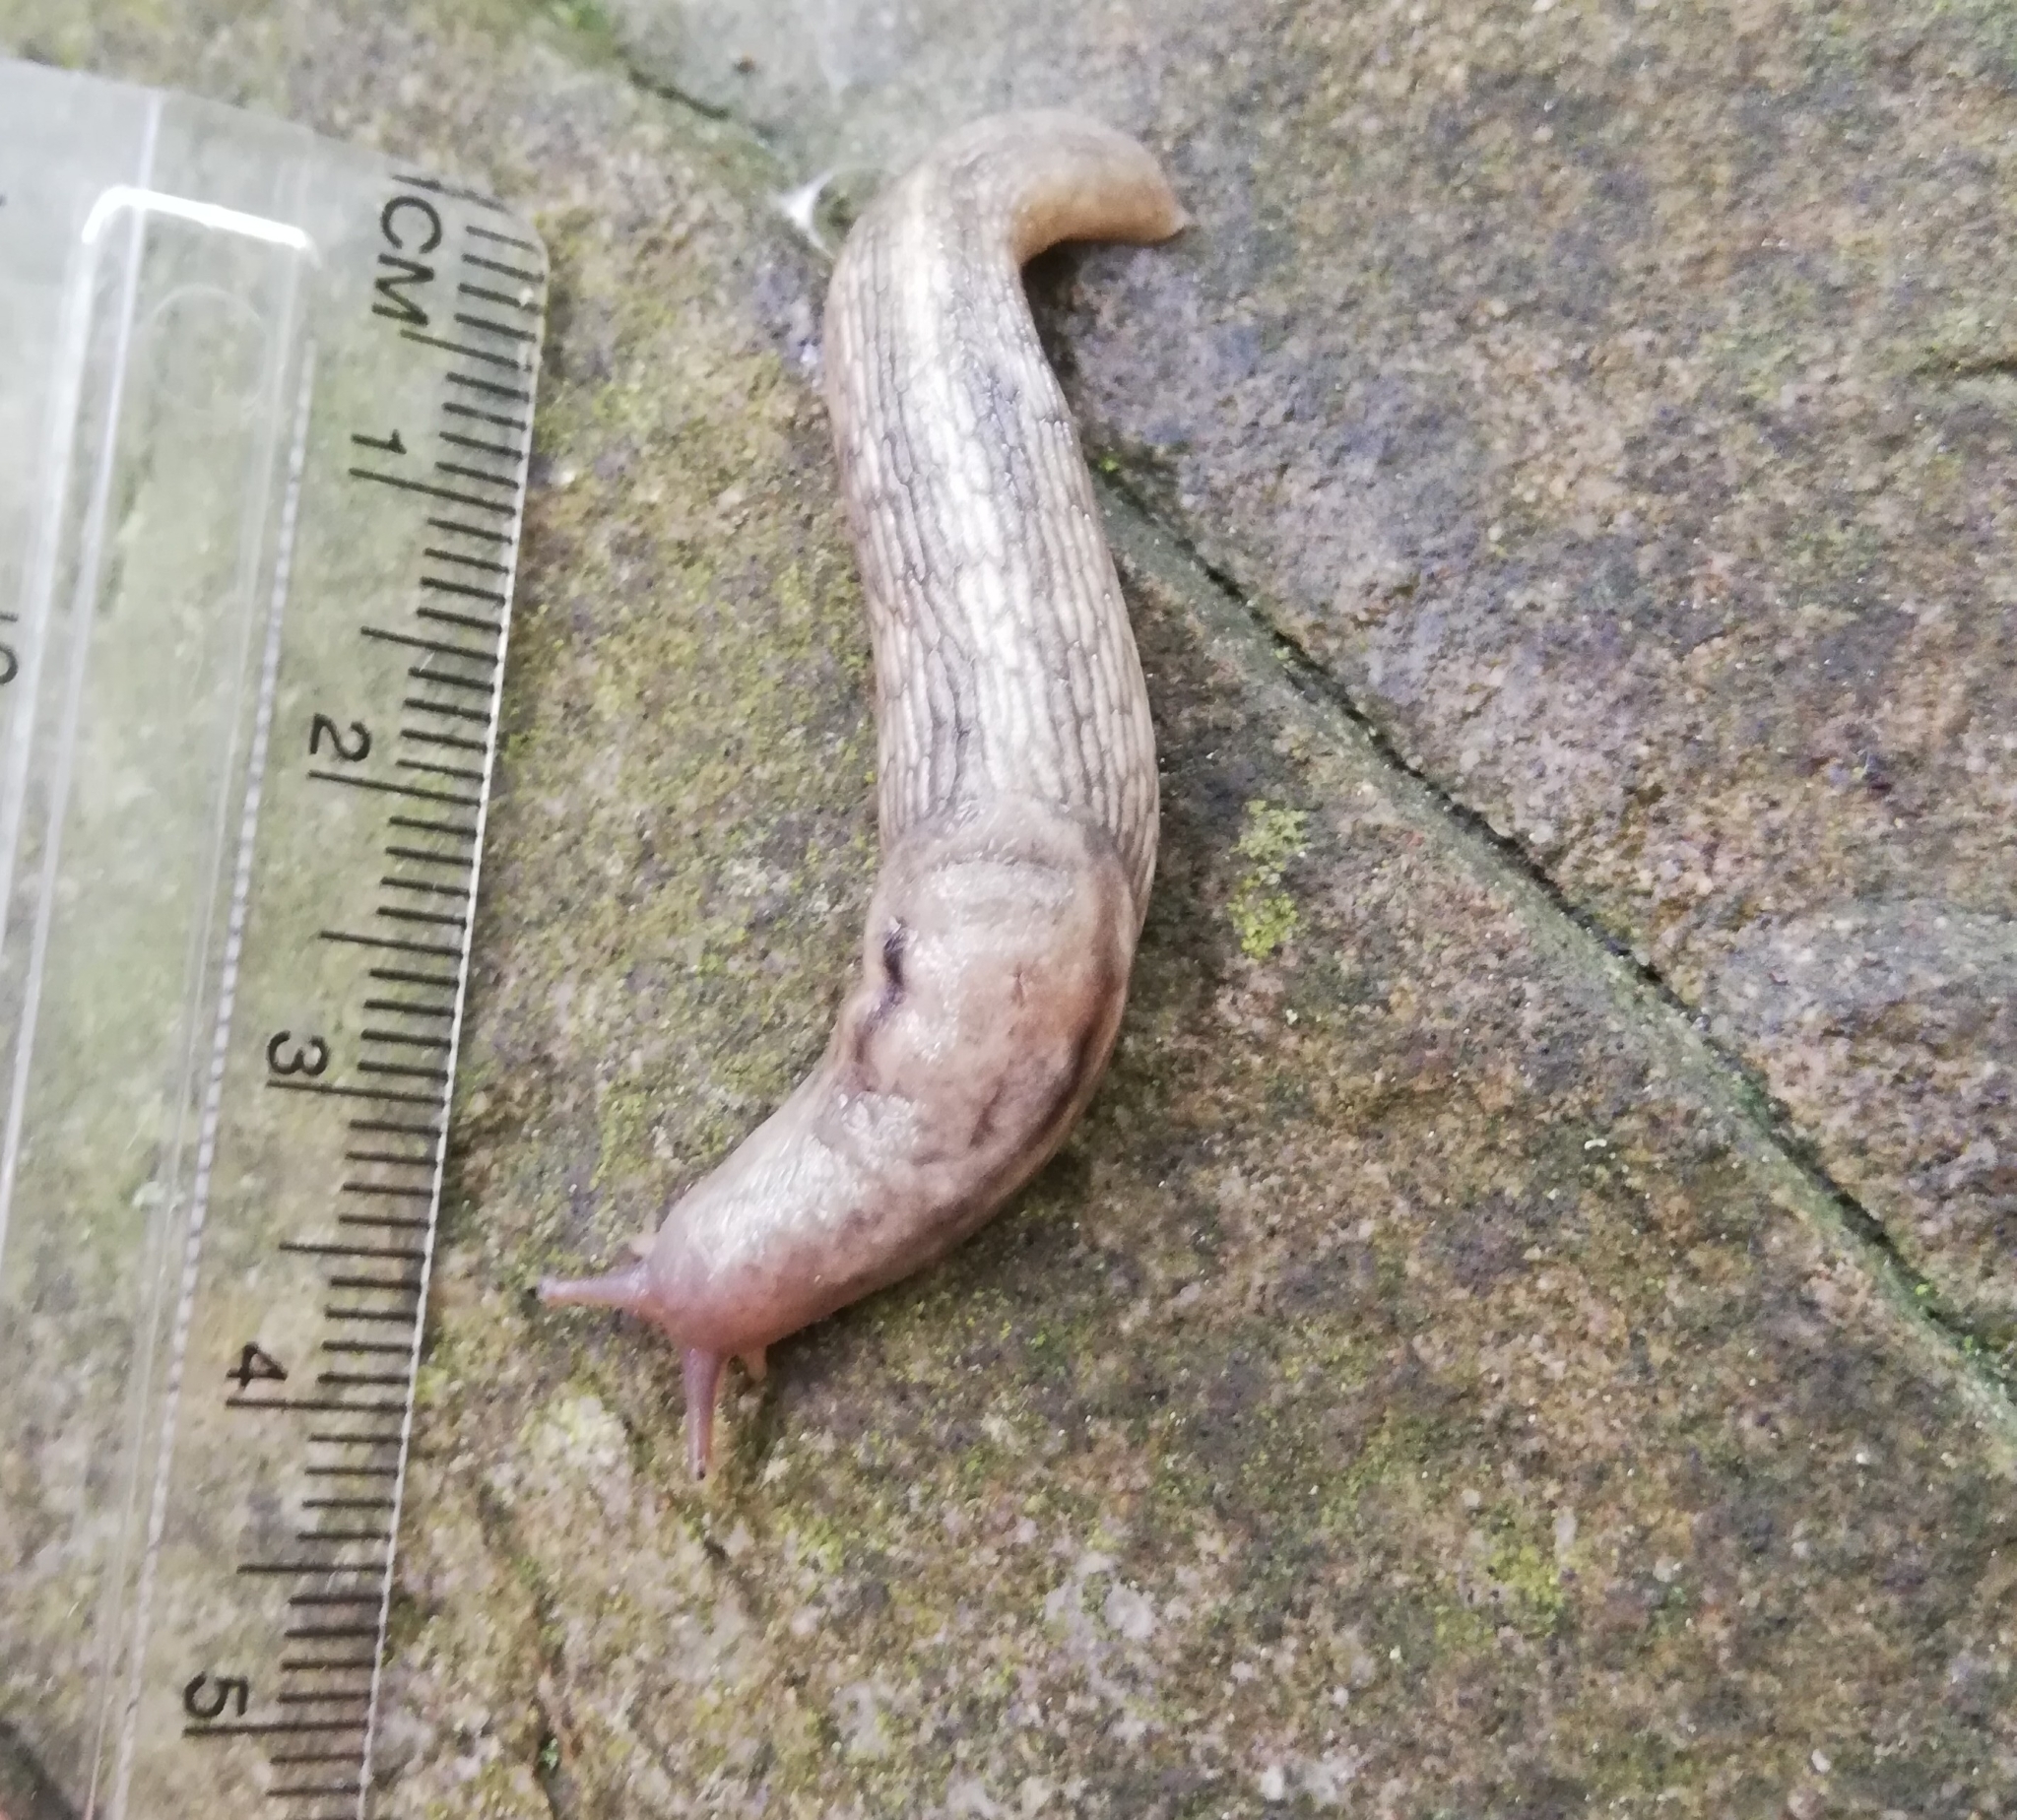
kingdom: Animalia
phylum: Mollusca
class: Gastropoda
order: Stylommatophora
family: Limacidae
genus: Lehmannia
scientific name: Lehmannia marginata
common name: Tree slug
